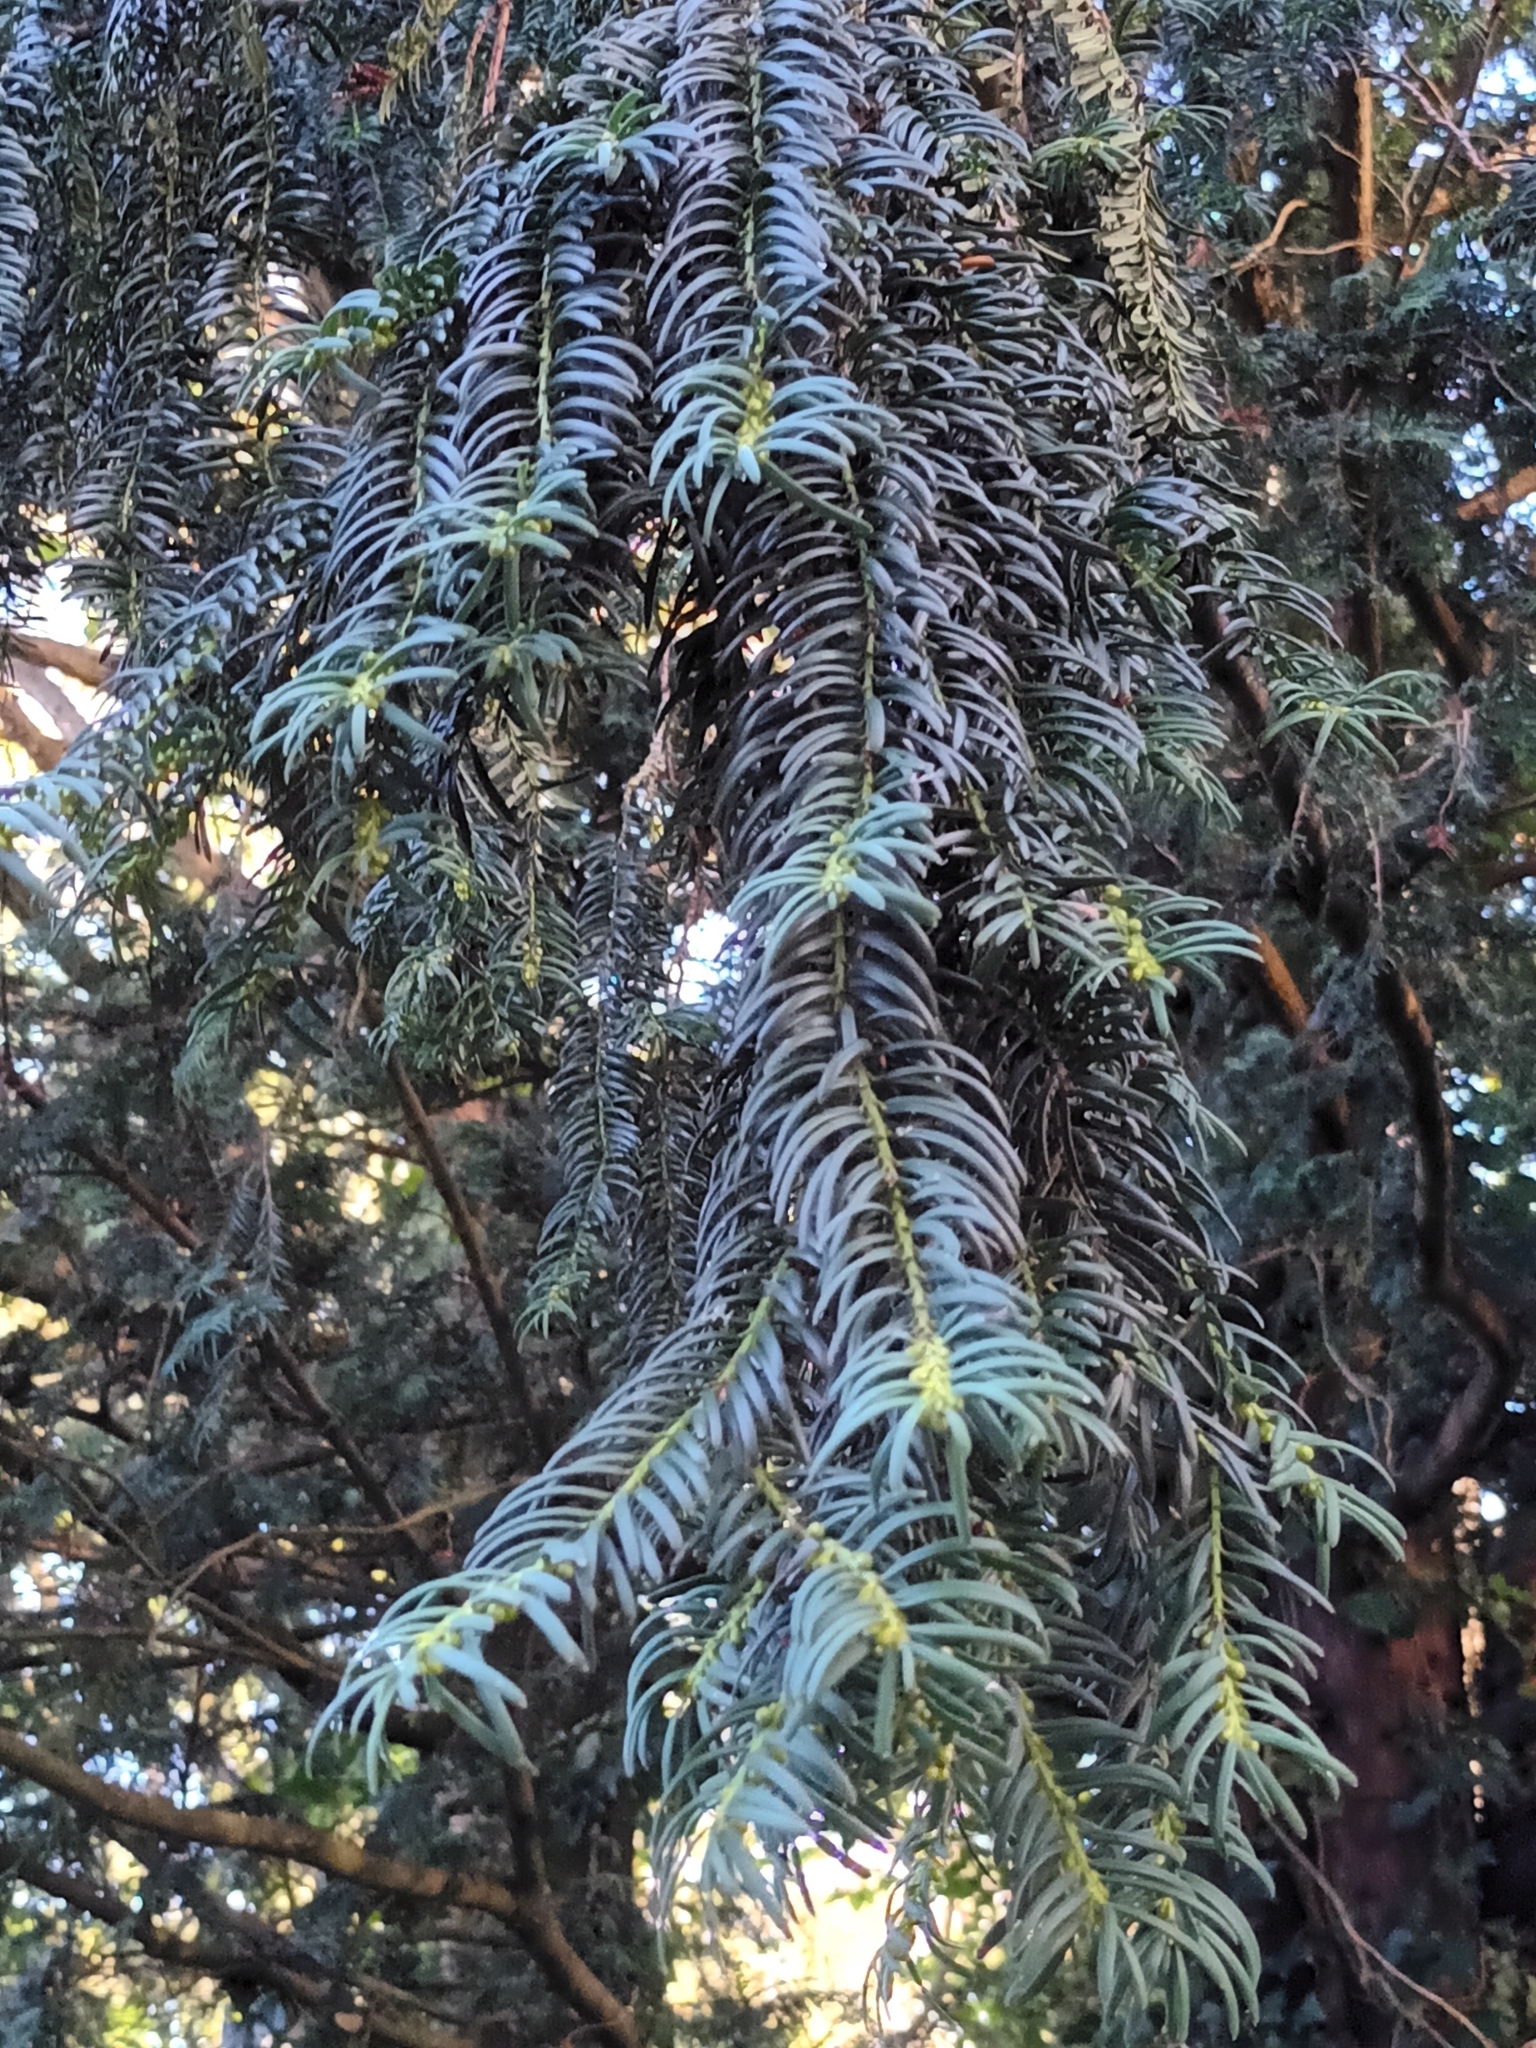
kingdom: Plantae
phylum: Tracheophyta
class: Pinopsida
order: Pinales
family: Taxaceae
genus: Taxus
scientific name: Taxus baccata
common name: Yew
